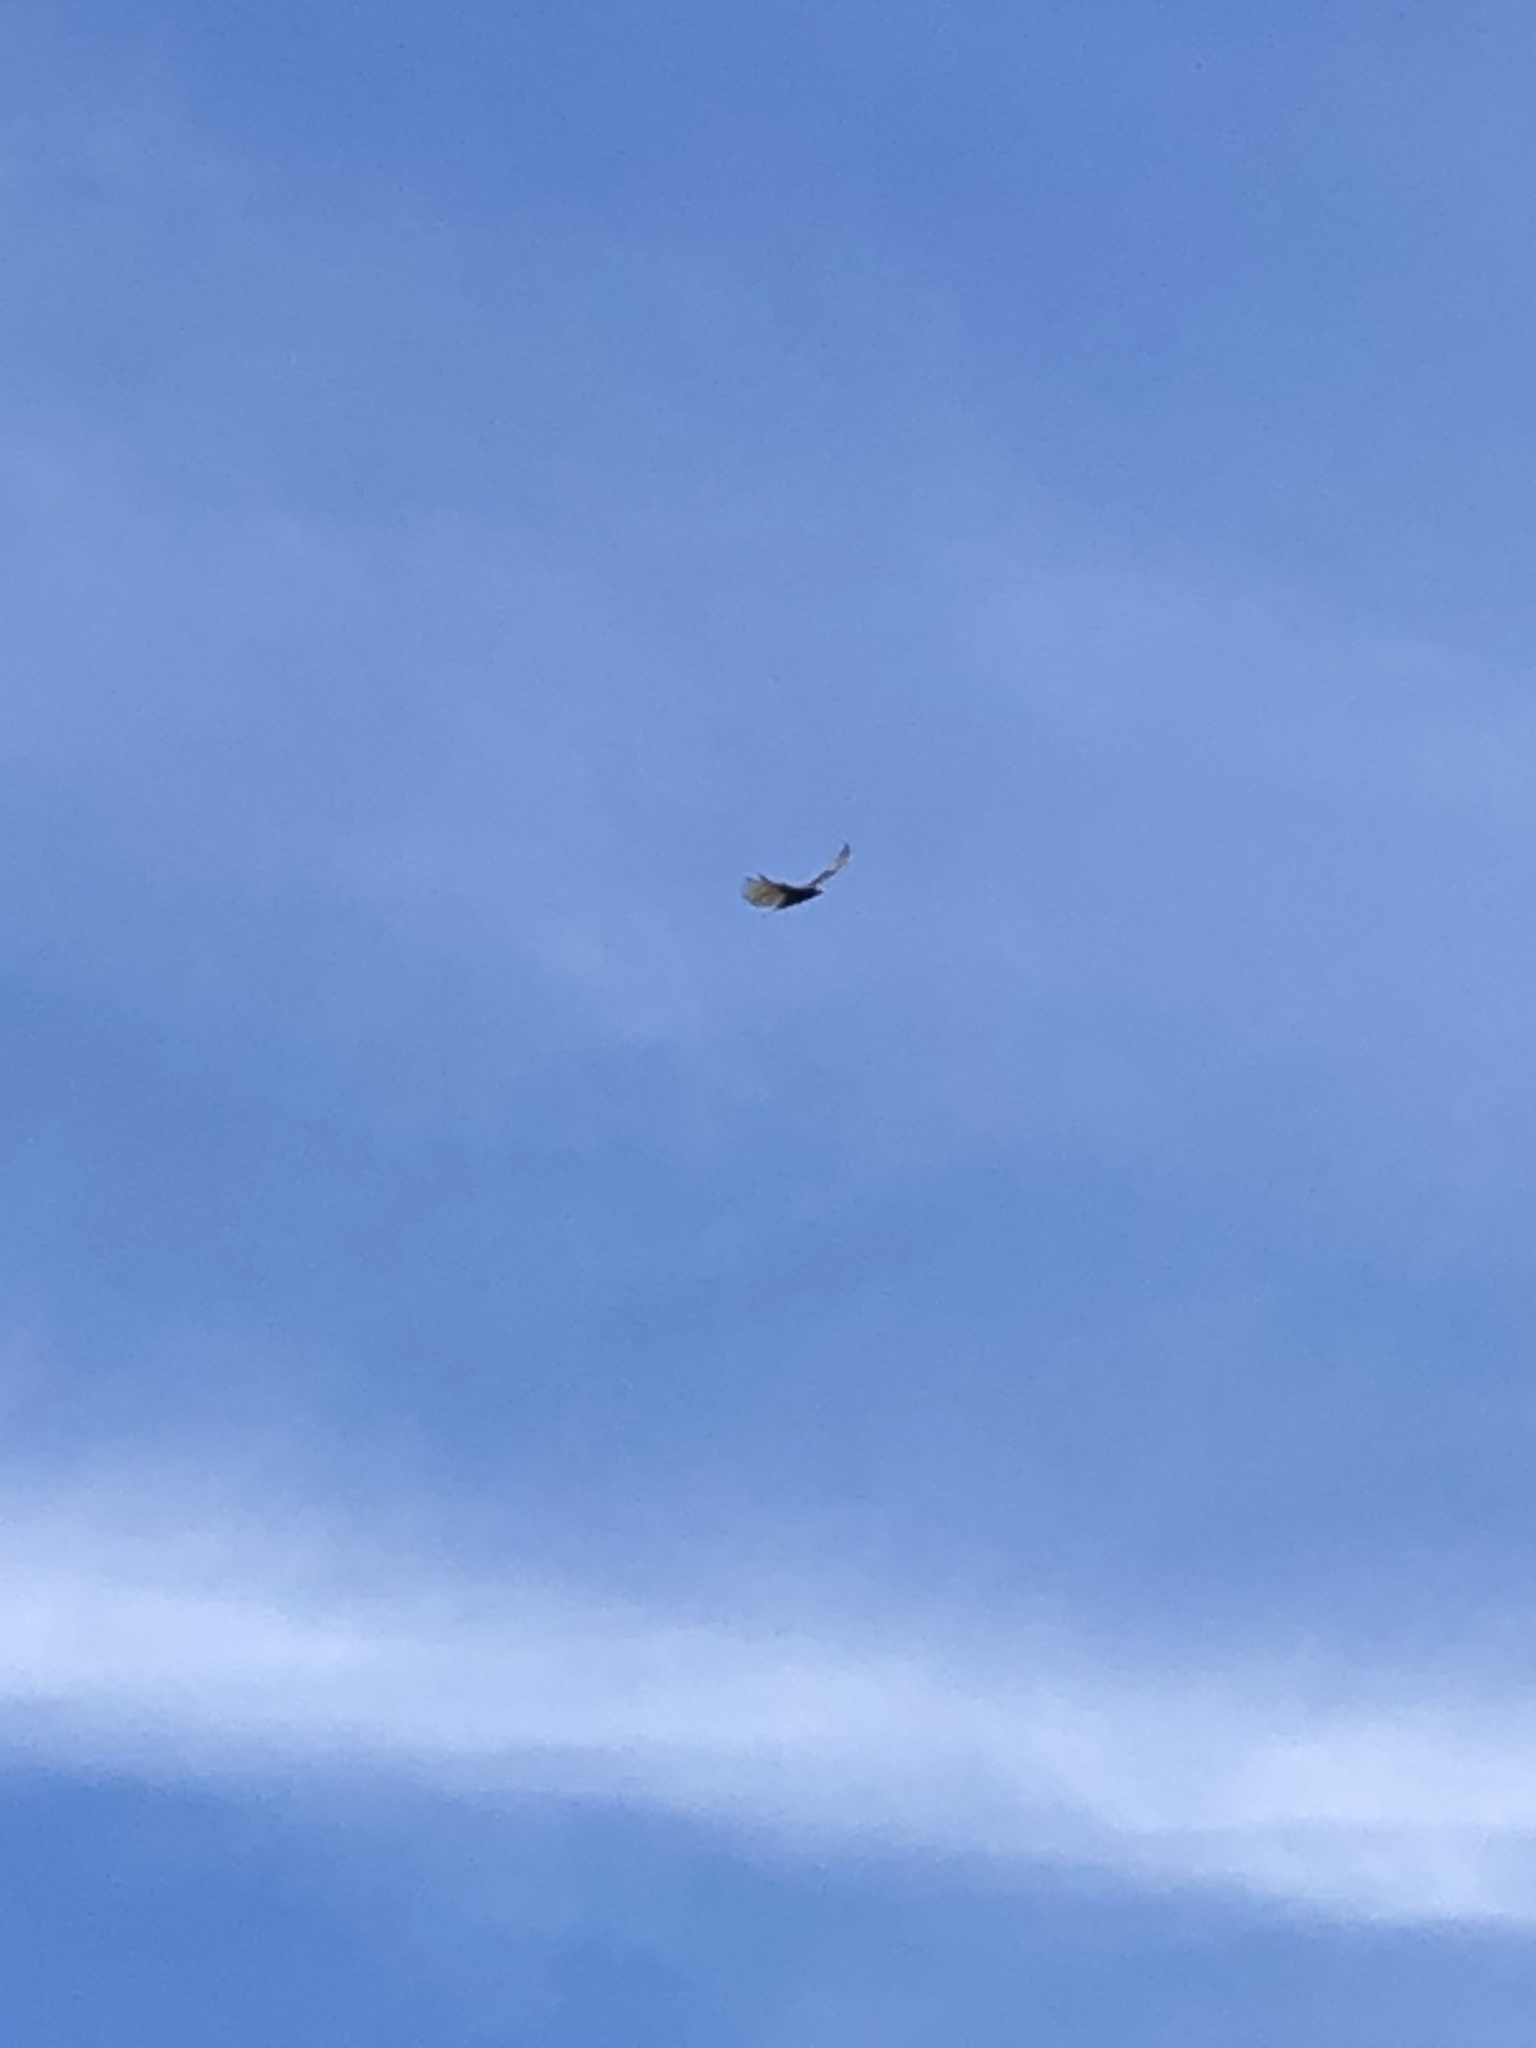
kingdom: Animalia
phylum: Chordata
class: Aves
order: Accipitriformes
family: Cathartidae
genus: Cathartes
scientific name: Cathartes aura
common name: Turkey vulture
